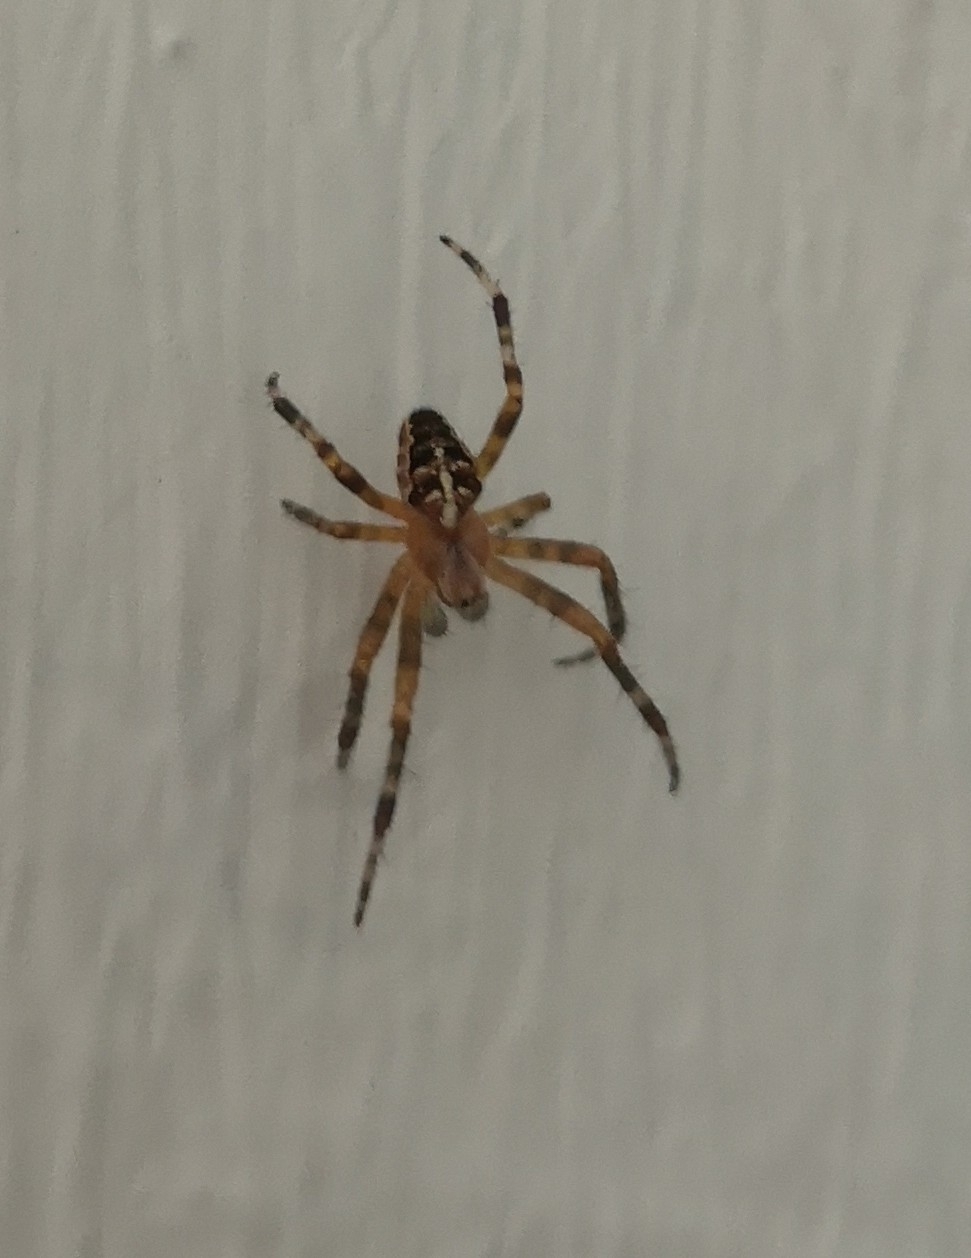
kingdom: Animalia
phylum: Arthropoda
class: Arachnida
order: Araneae
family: Araneidae
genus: Araneus
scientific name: Araneus diadematus
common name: Cross orbweaver
